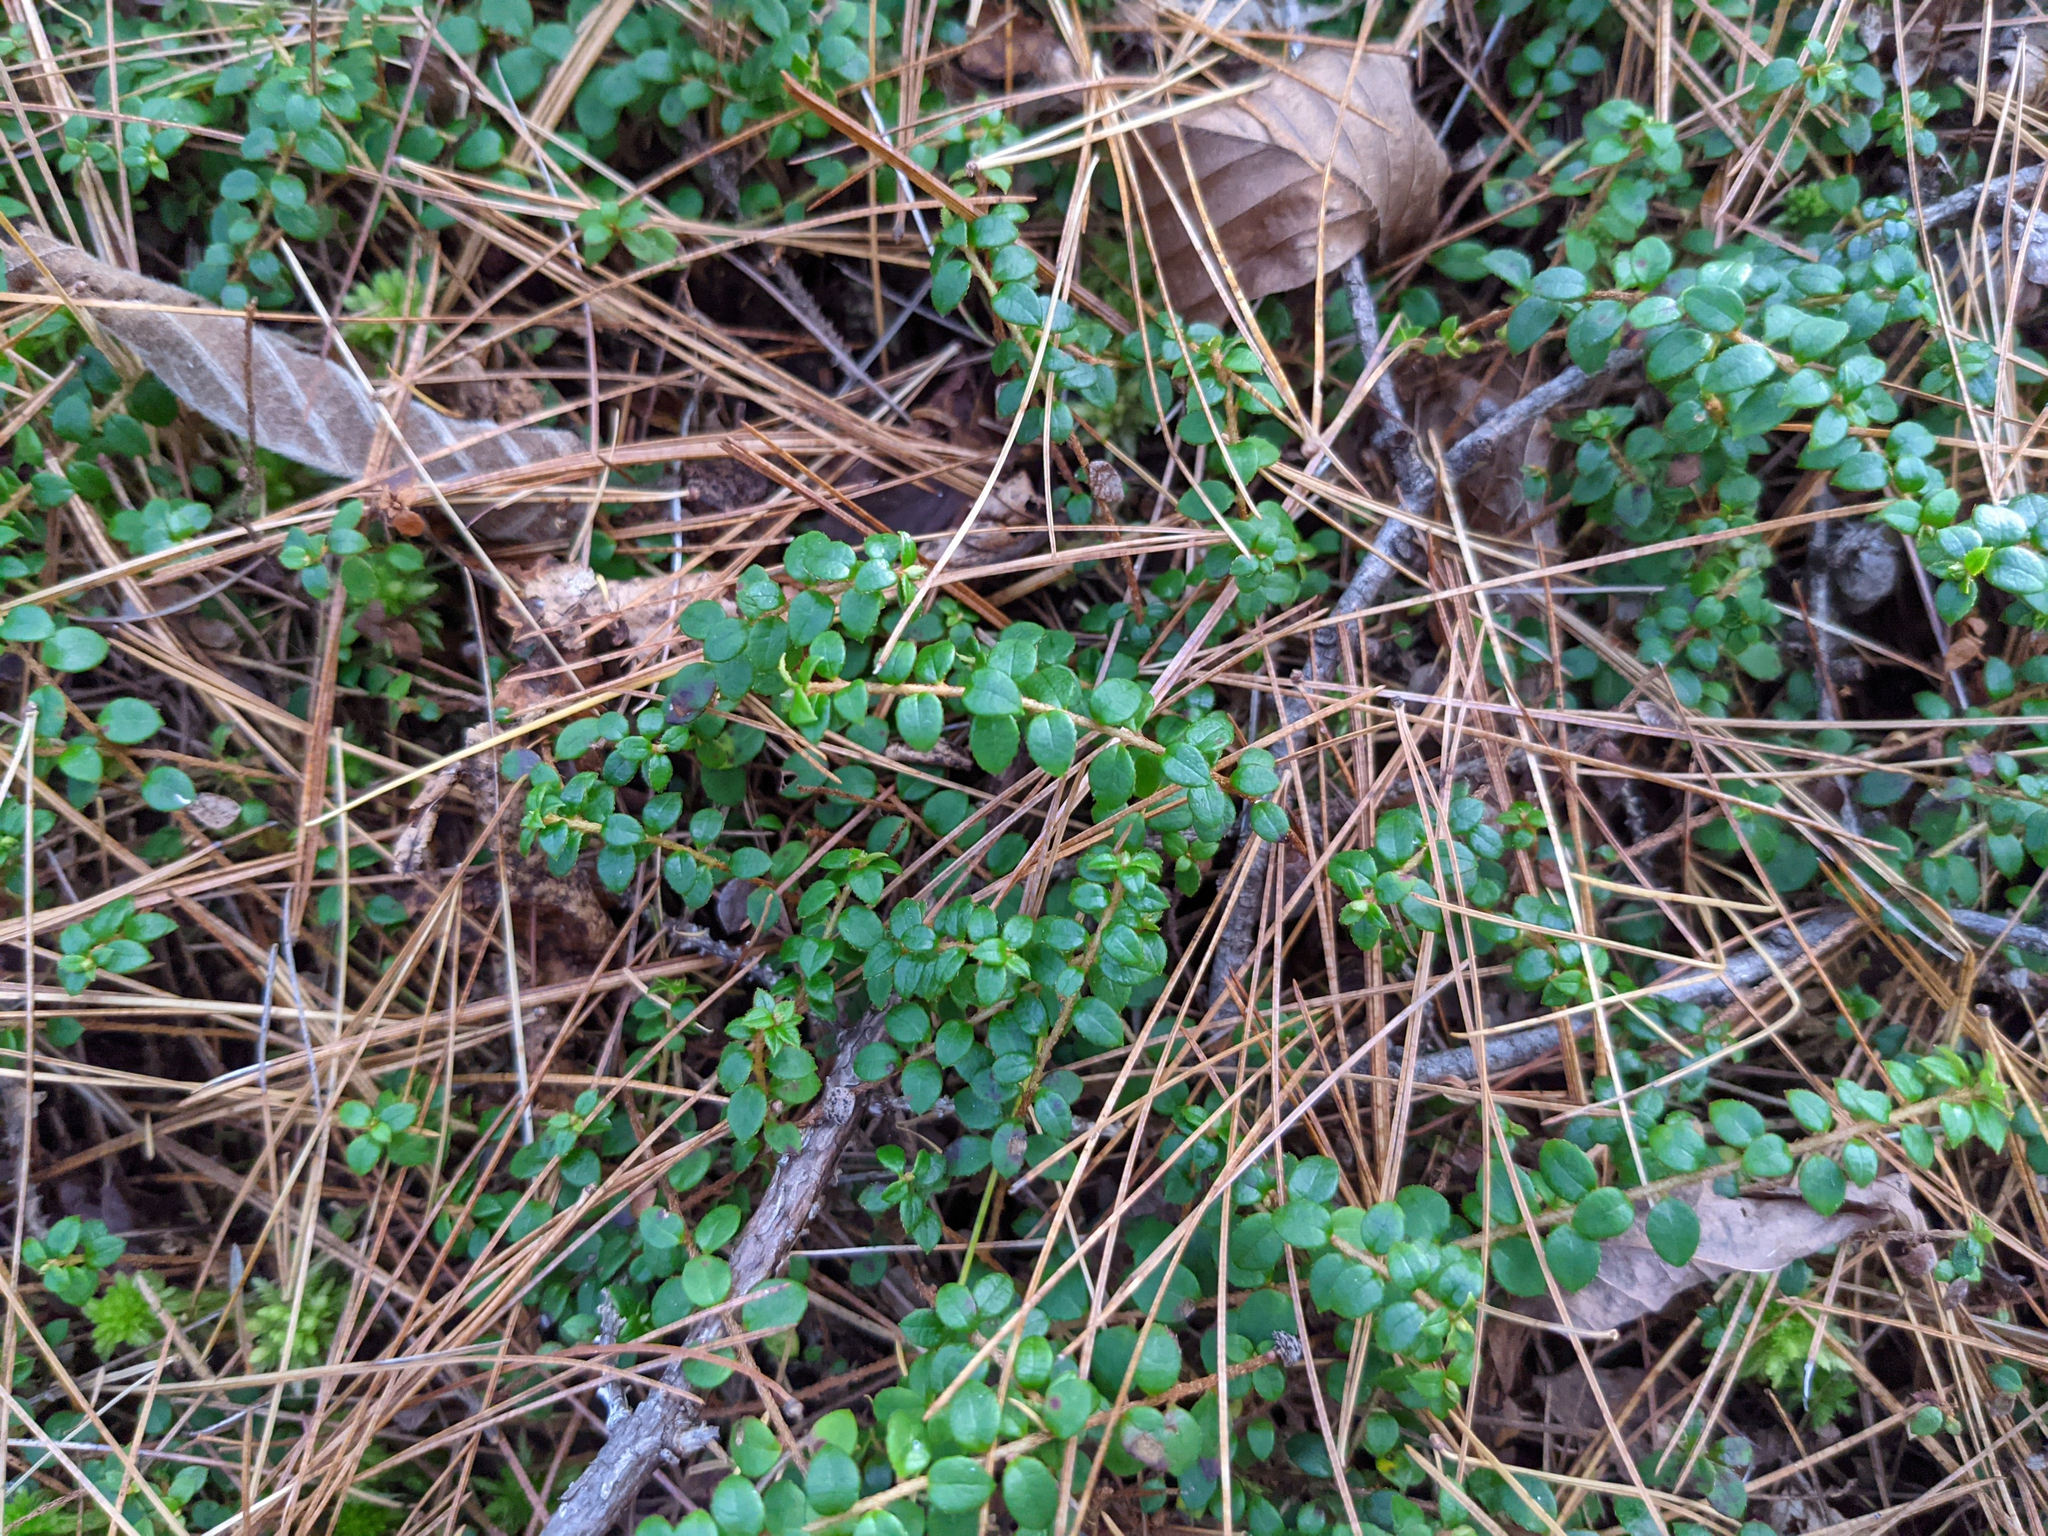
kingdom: Plantae
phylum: Tracheophyta
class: Magnoliopsida
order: Ericales
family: Ericaceae
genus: Gaultheria
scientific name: Gaultheria hispidula
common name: Cancer wintergreen
